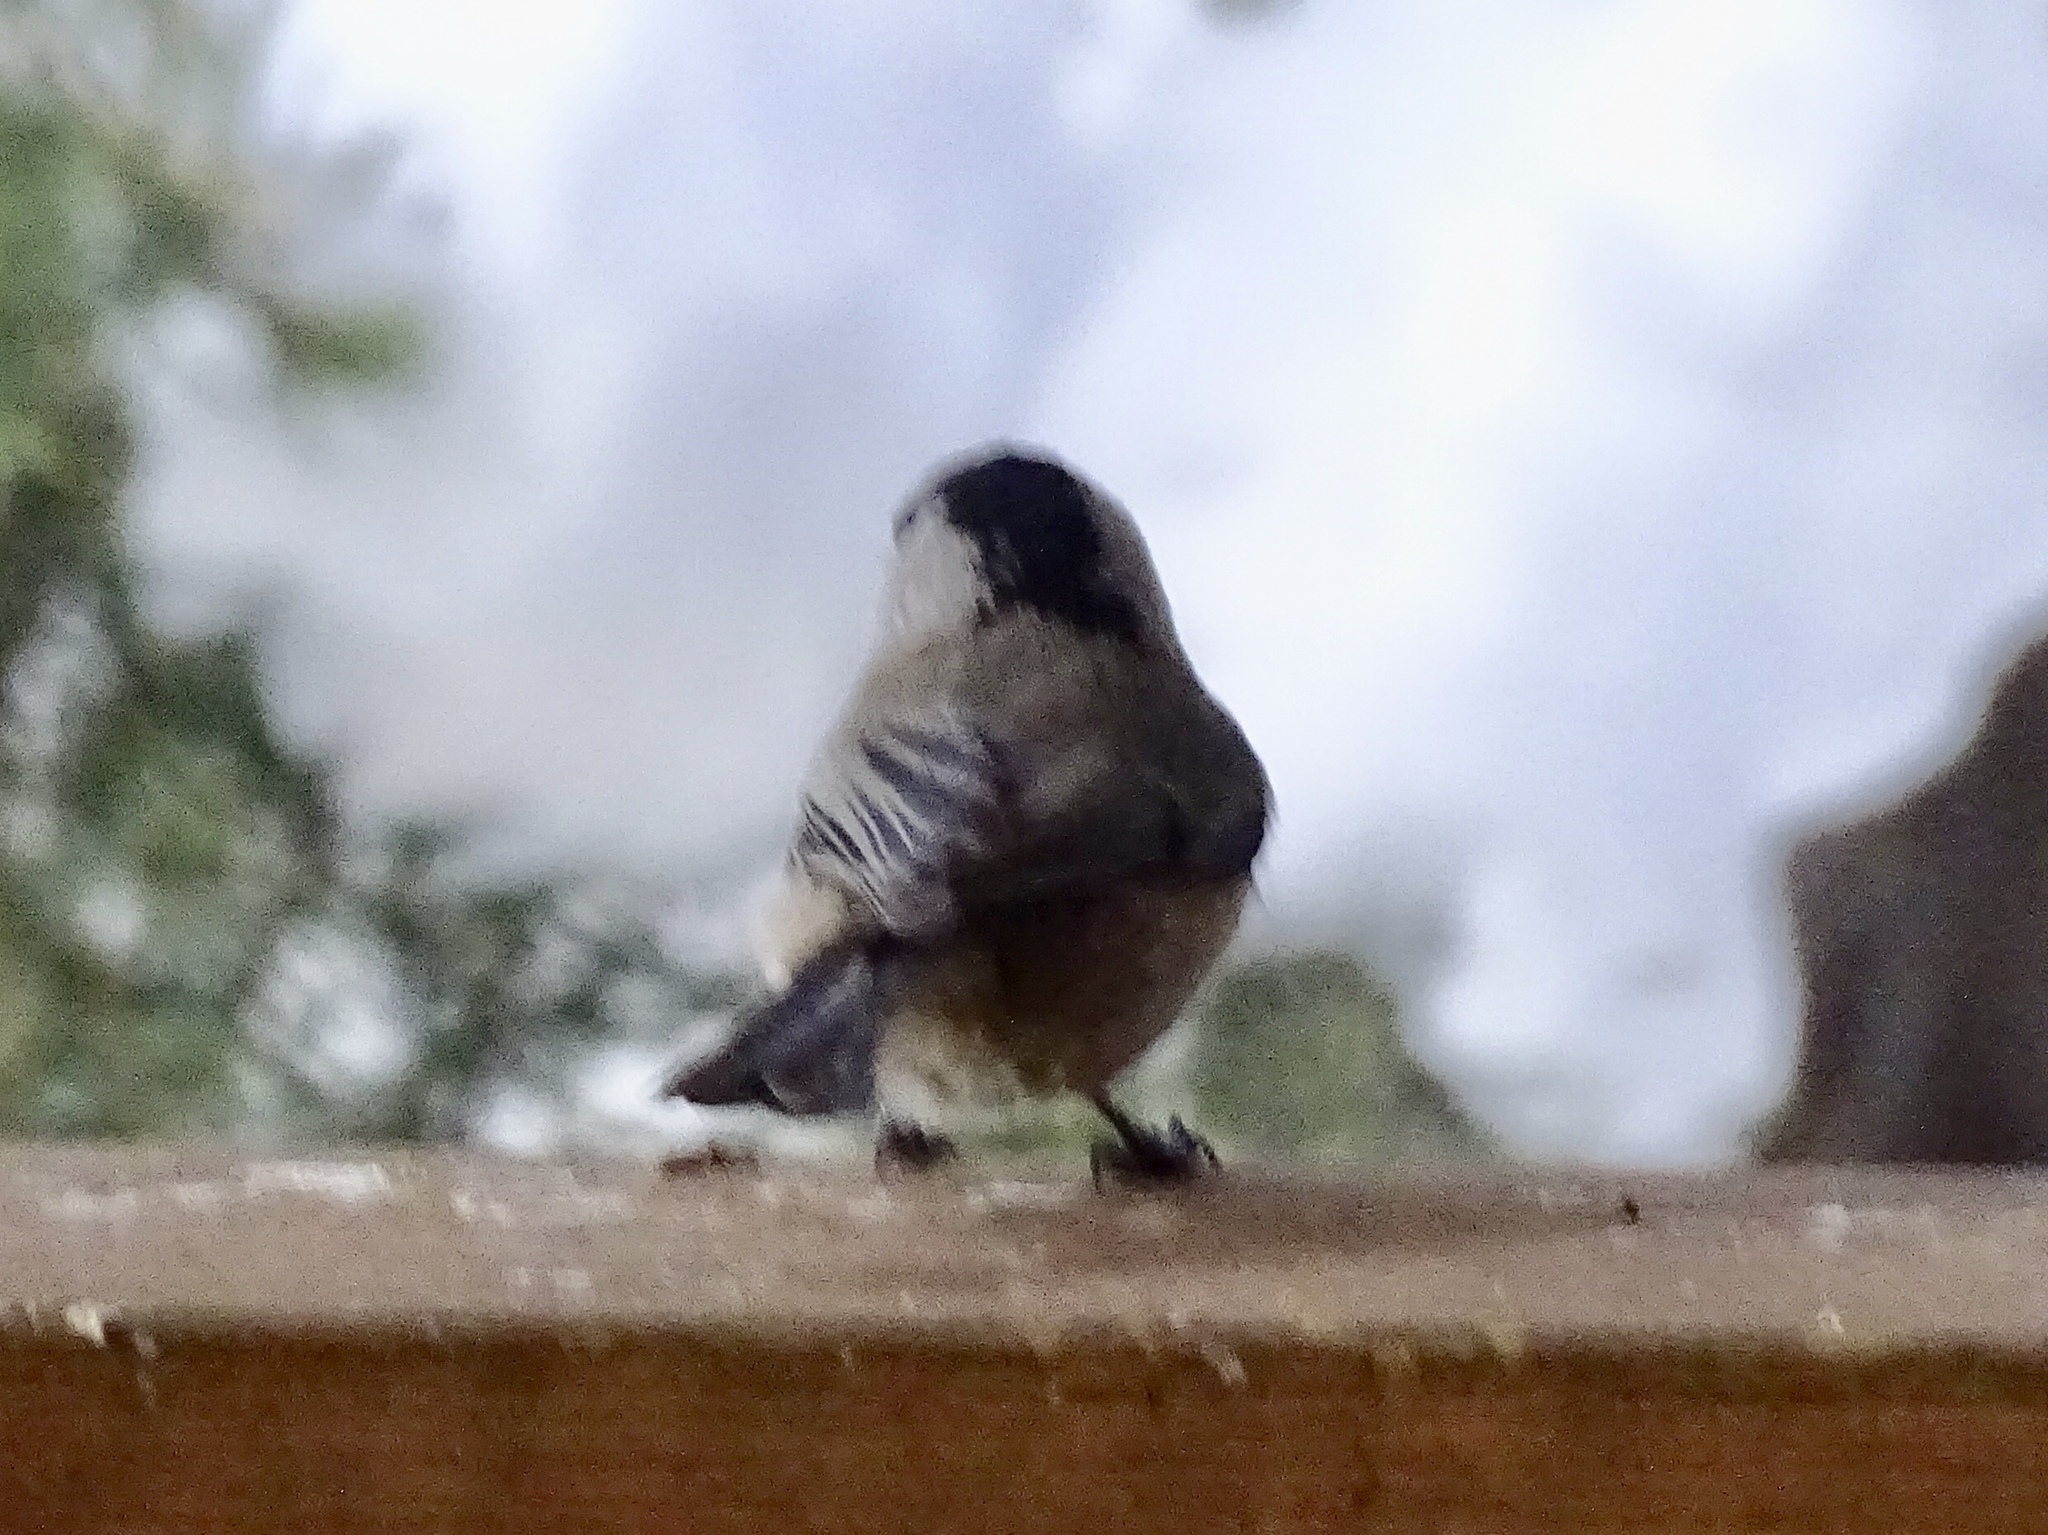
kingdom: Animalia
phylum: Chordata
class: Aves
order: Passeriformes
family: Paridae
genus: Poecile
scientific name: Poecile gambeli
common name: Mountain chickadee
